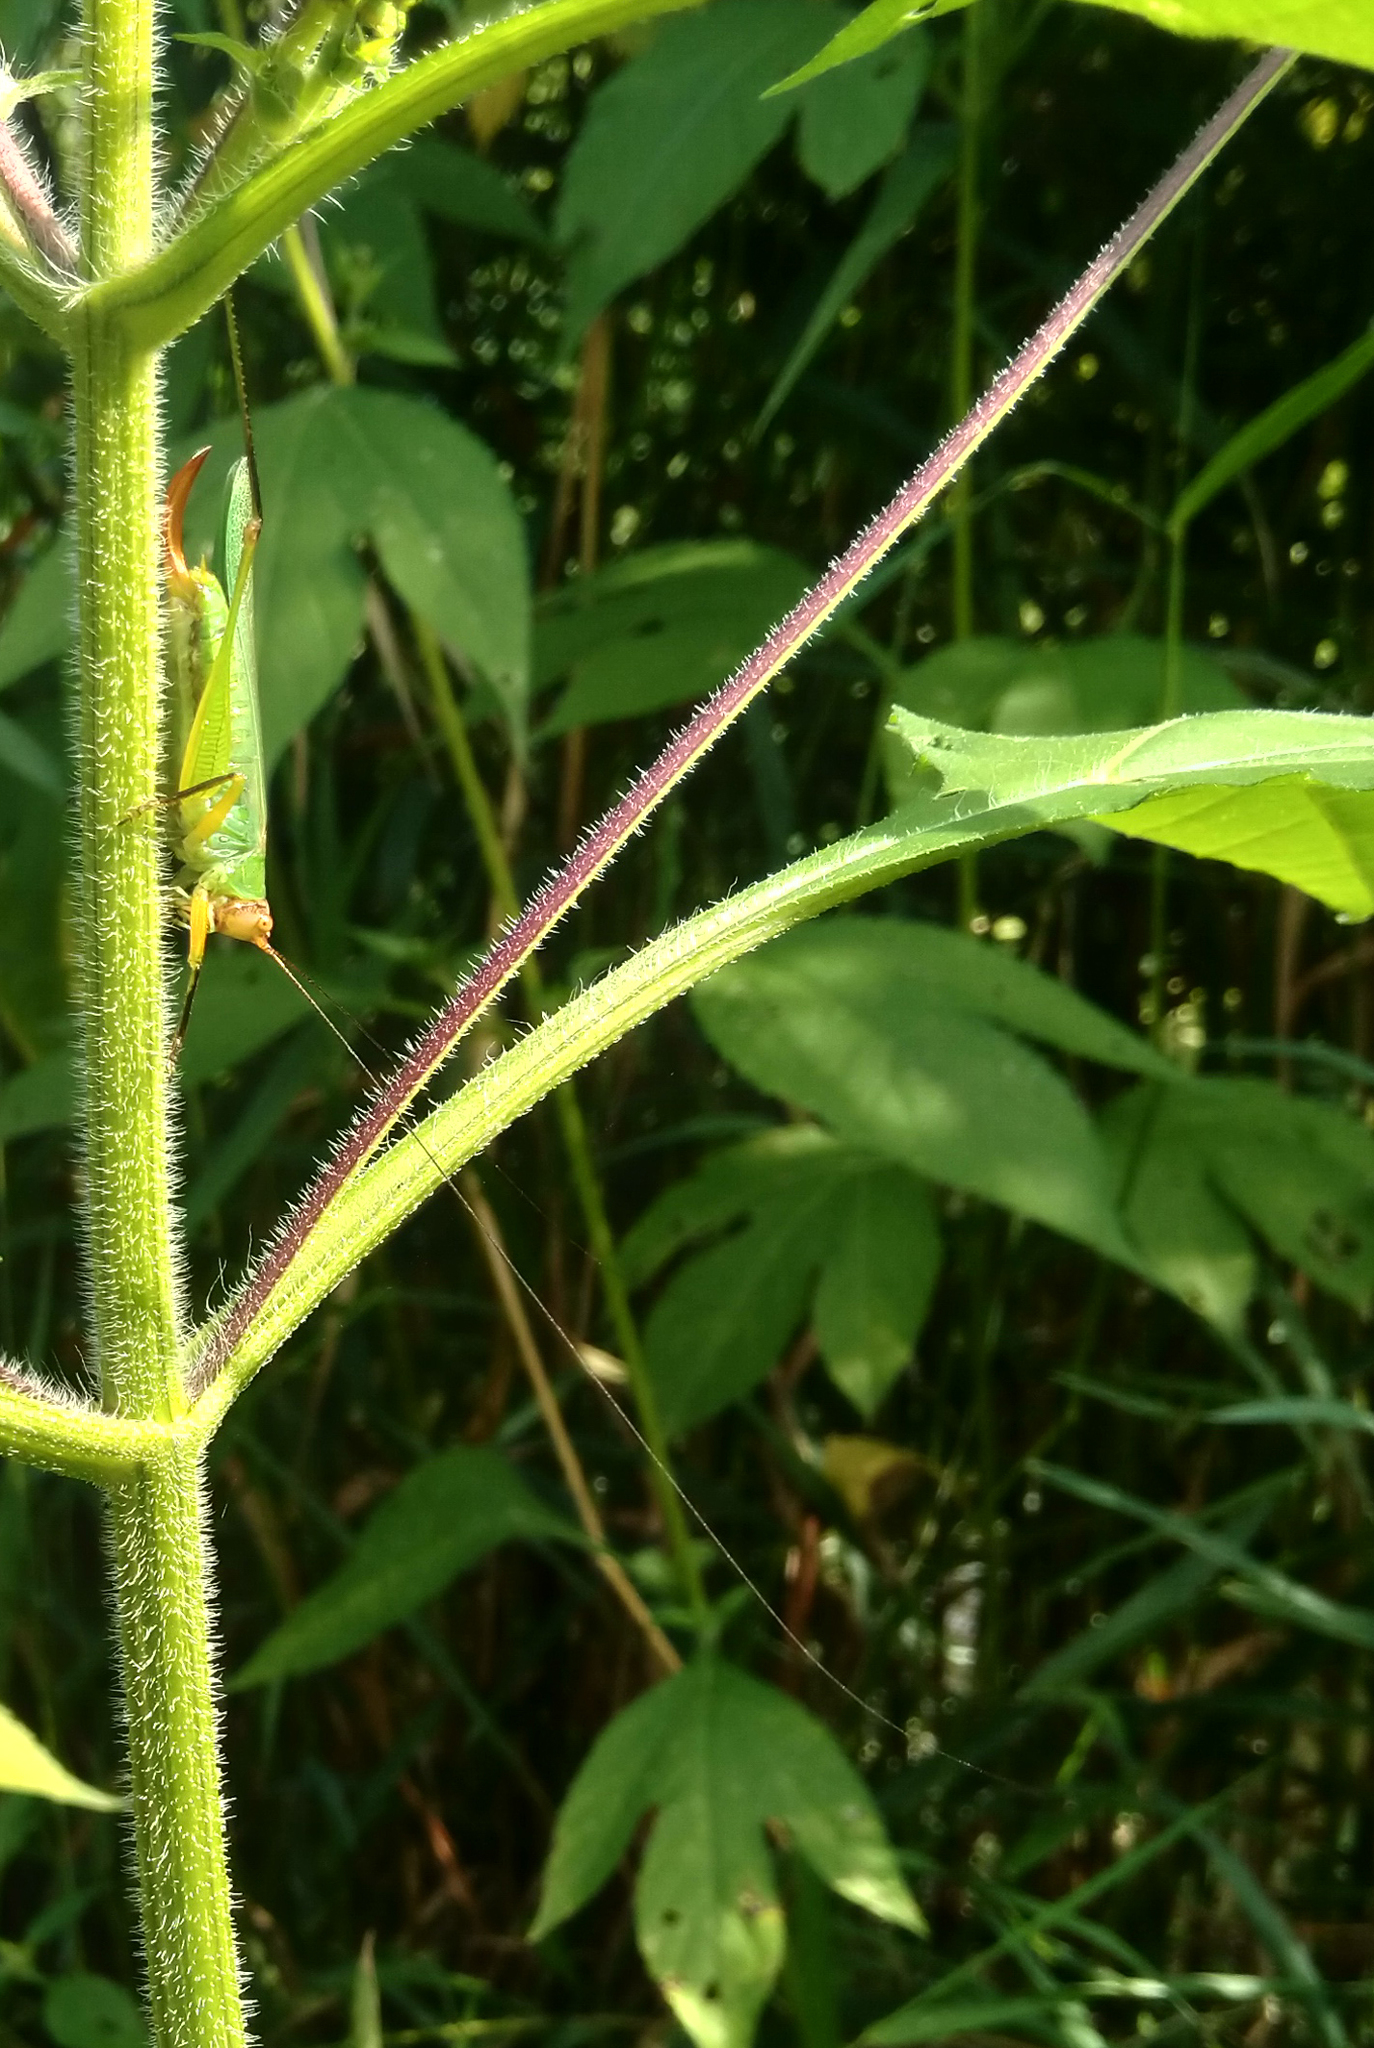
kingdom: Animalia
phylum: Arthropoda
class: Insecta
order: Orthoptera
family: Tettigoniidae
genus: Orchelimum
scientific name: Orchelimum nigripes
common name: Black-legged meadow katydid
